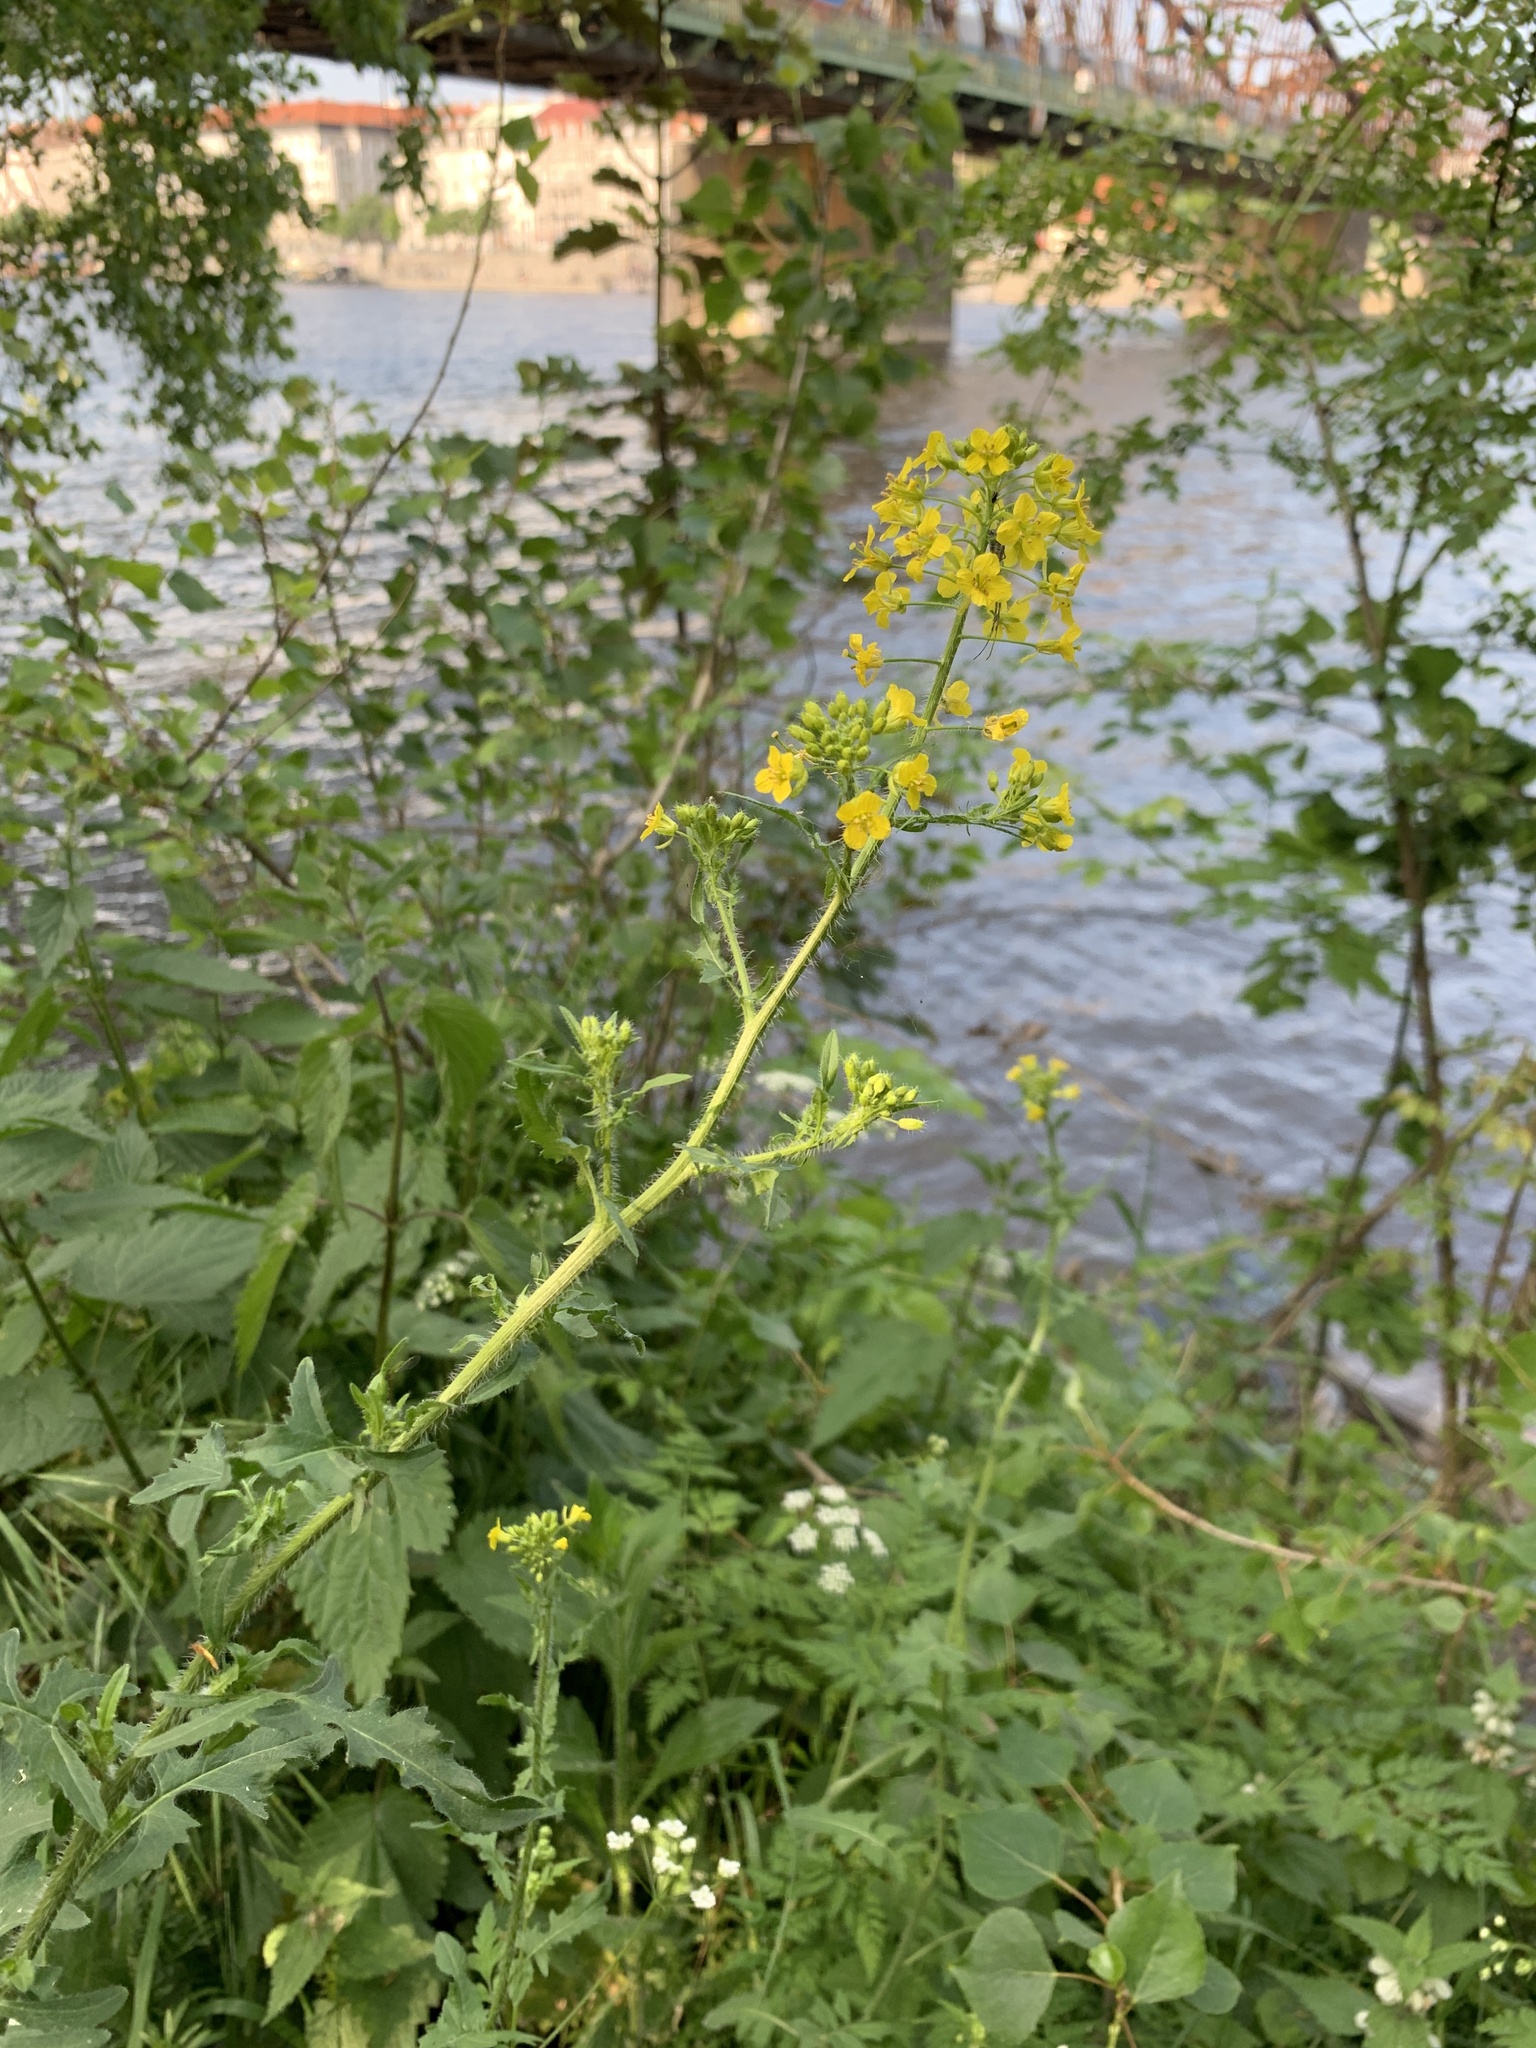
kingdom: Plantae
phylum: Tracheophyta
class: Magnoliopsida
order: Brassicales
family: Brassicaceae
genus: Sisymbrium
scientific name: Sisymbrium loeselii
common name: False london-rocket
